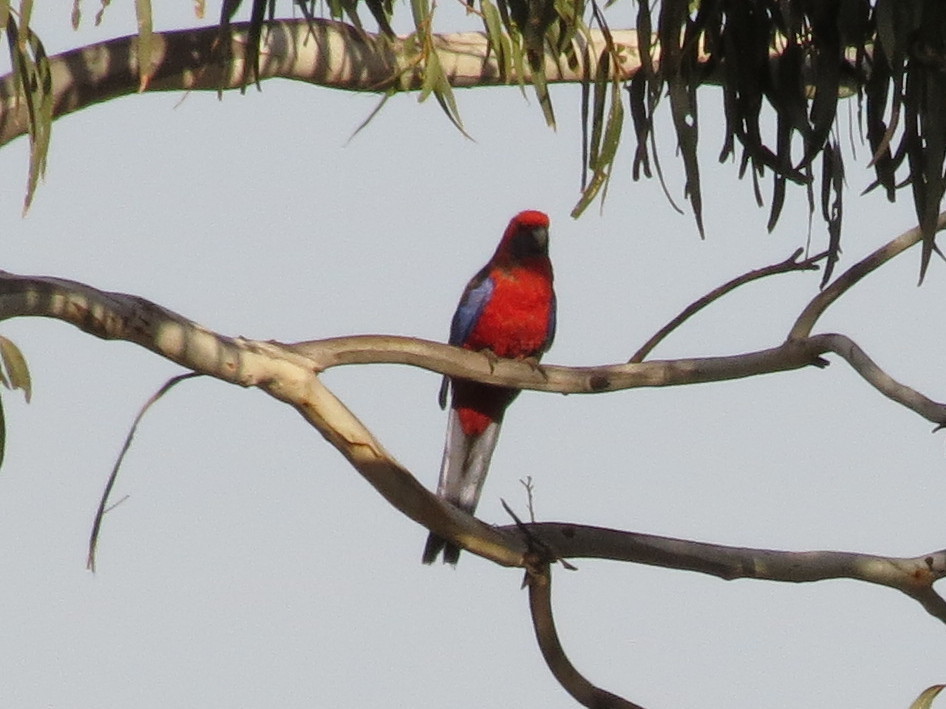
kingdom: Animalia
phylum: Chordata
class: Aves
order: Psittaciformes
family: Psittacidae
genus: Platycercus
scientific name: Platycercus elegans
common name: Crimson rosella
